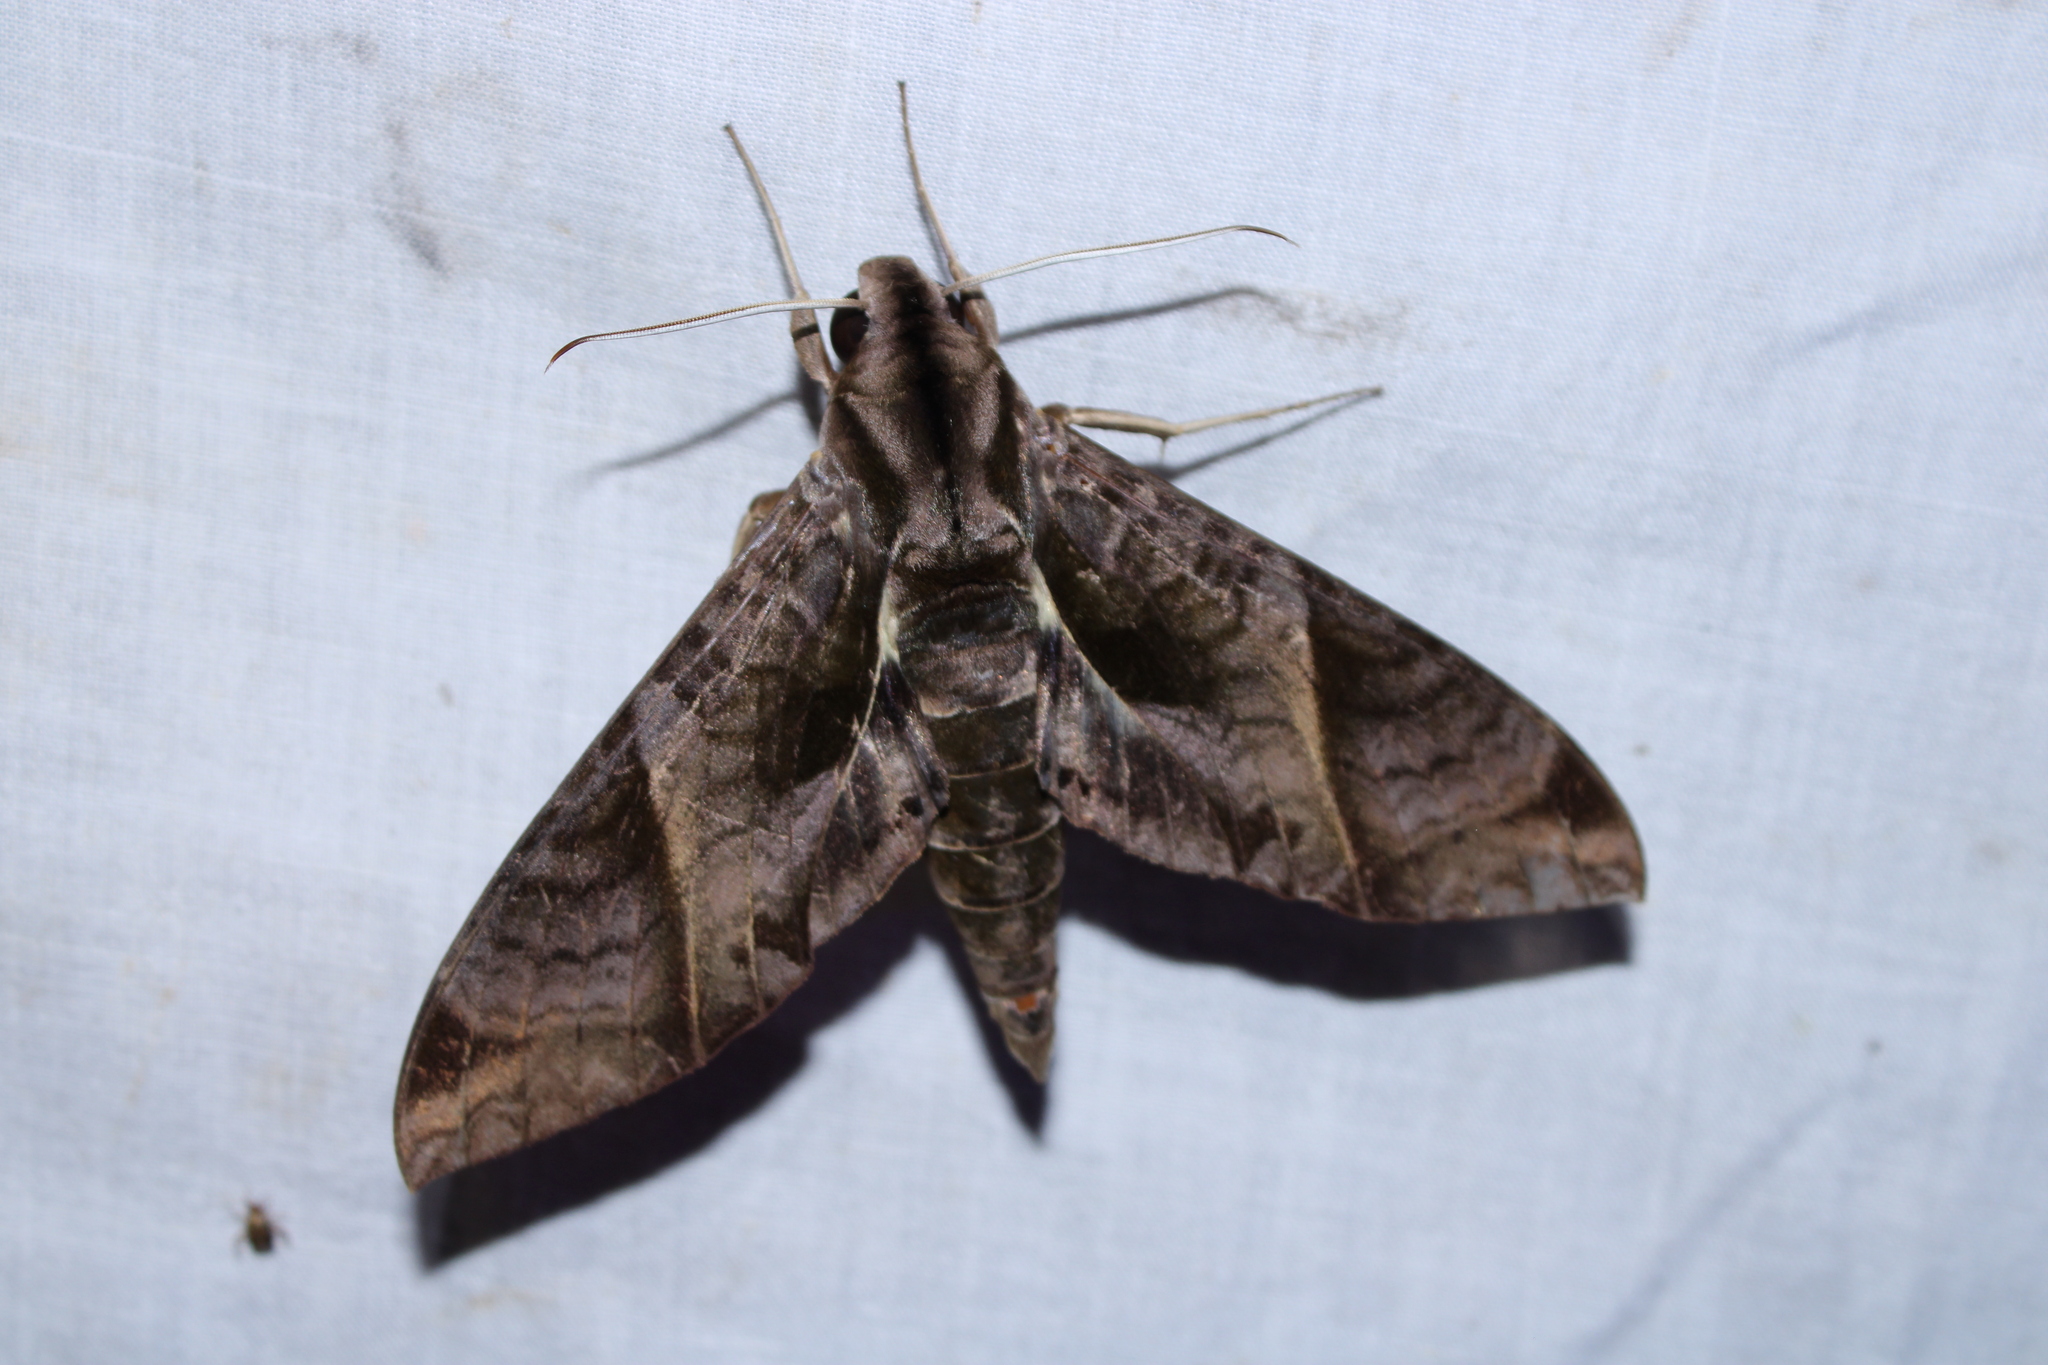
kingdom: Animalia
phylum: Arthropoda
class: Insecta
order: Lepidoptera
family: Sphingidae
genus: Eumorpha
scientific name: Eumorpha anchemolus
